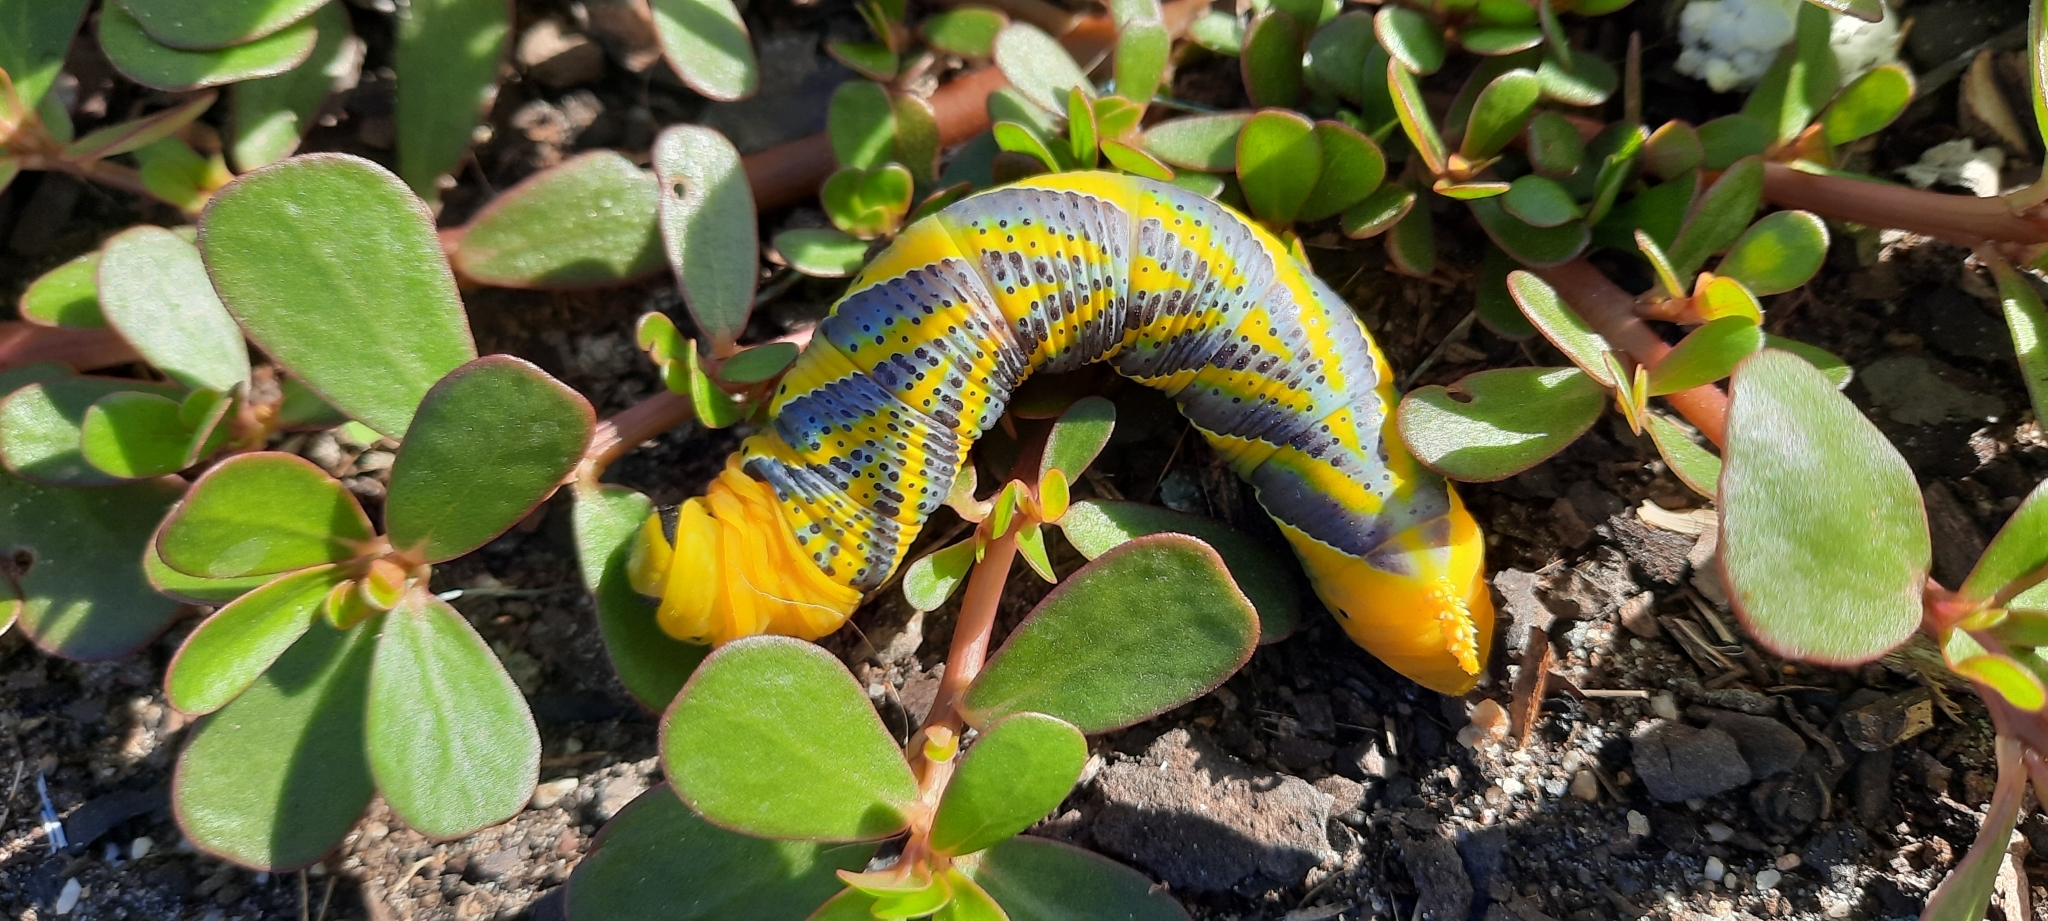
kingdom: Animalia
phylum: Arthropoda
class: Insecta
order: Lepidoptera
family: Sphingidae
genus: Acherontia
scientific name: Acherontia atropos
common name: Death's-head hawk moth
